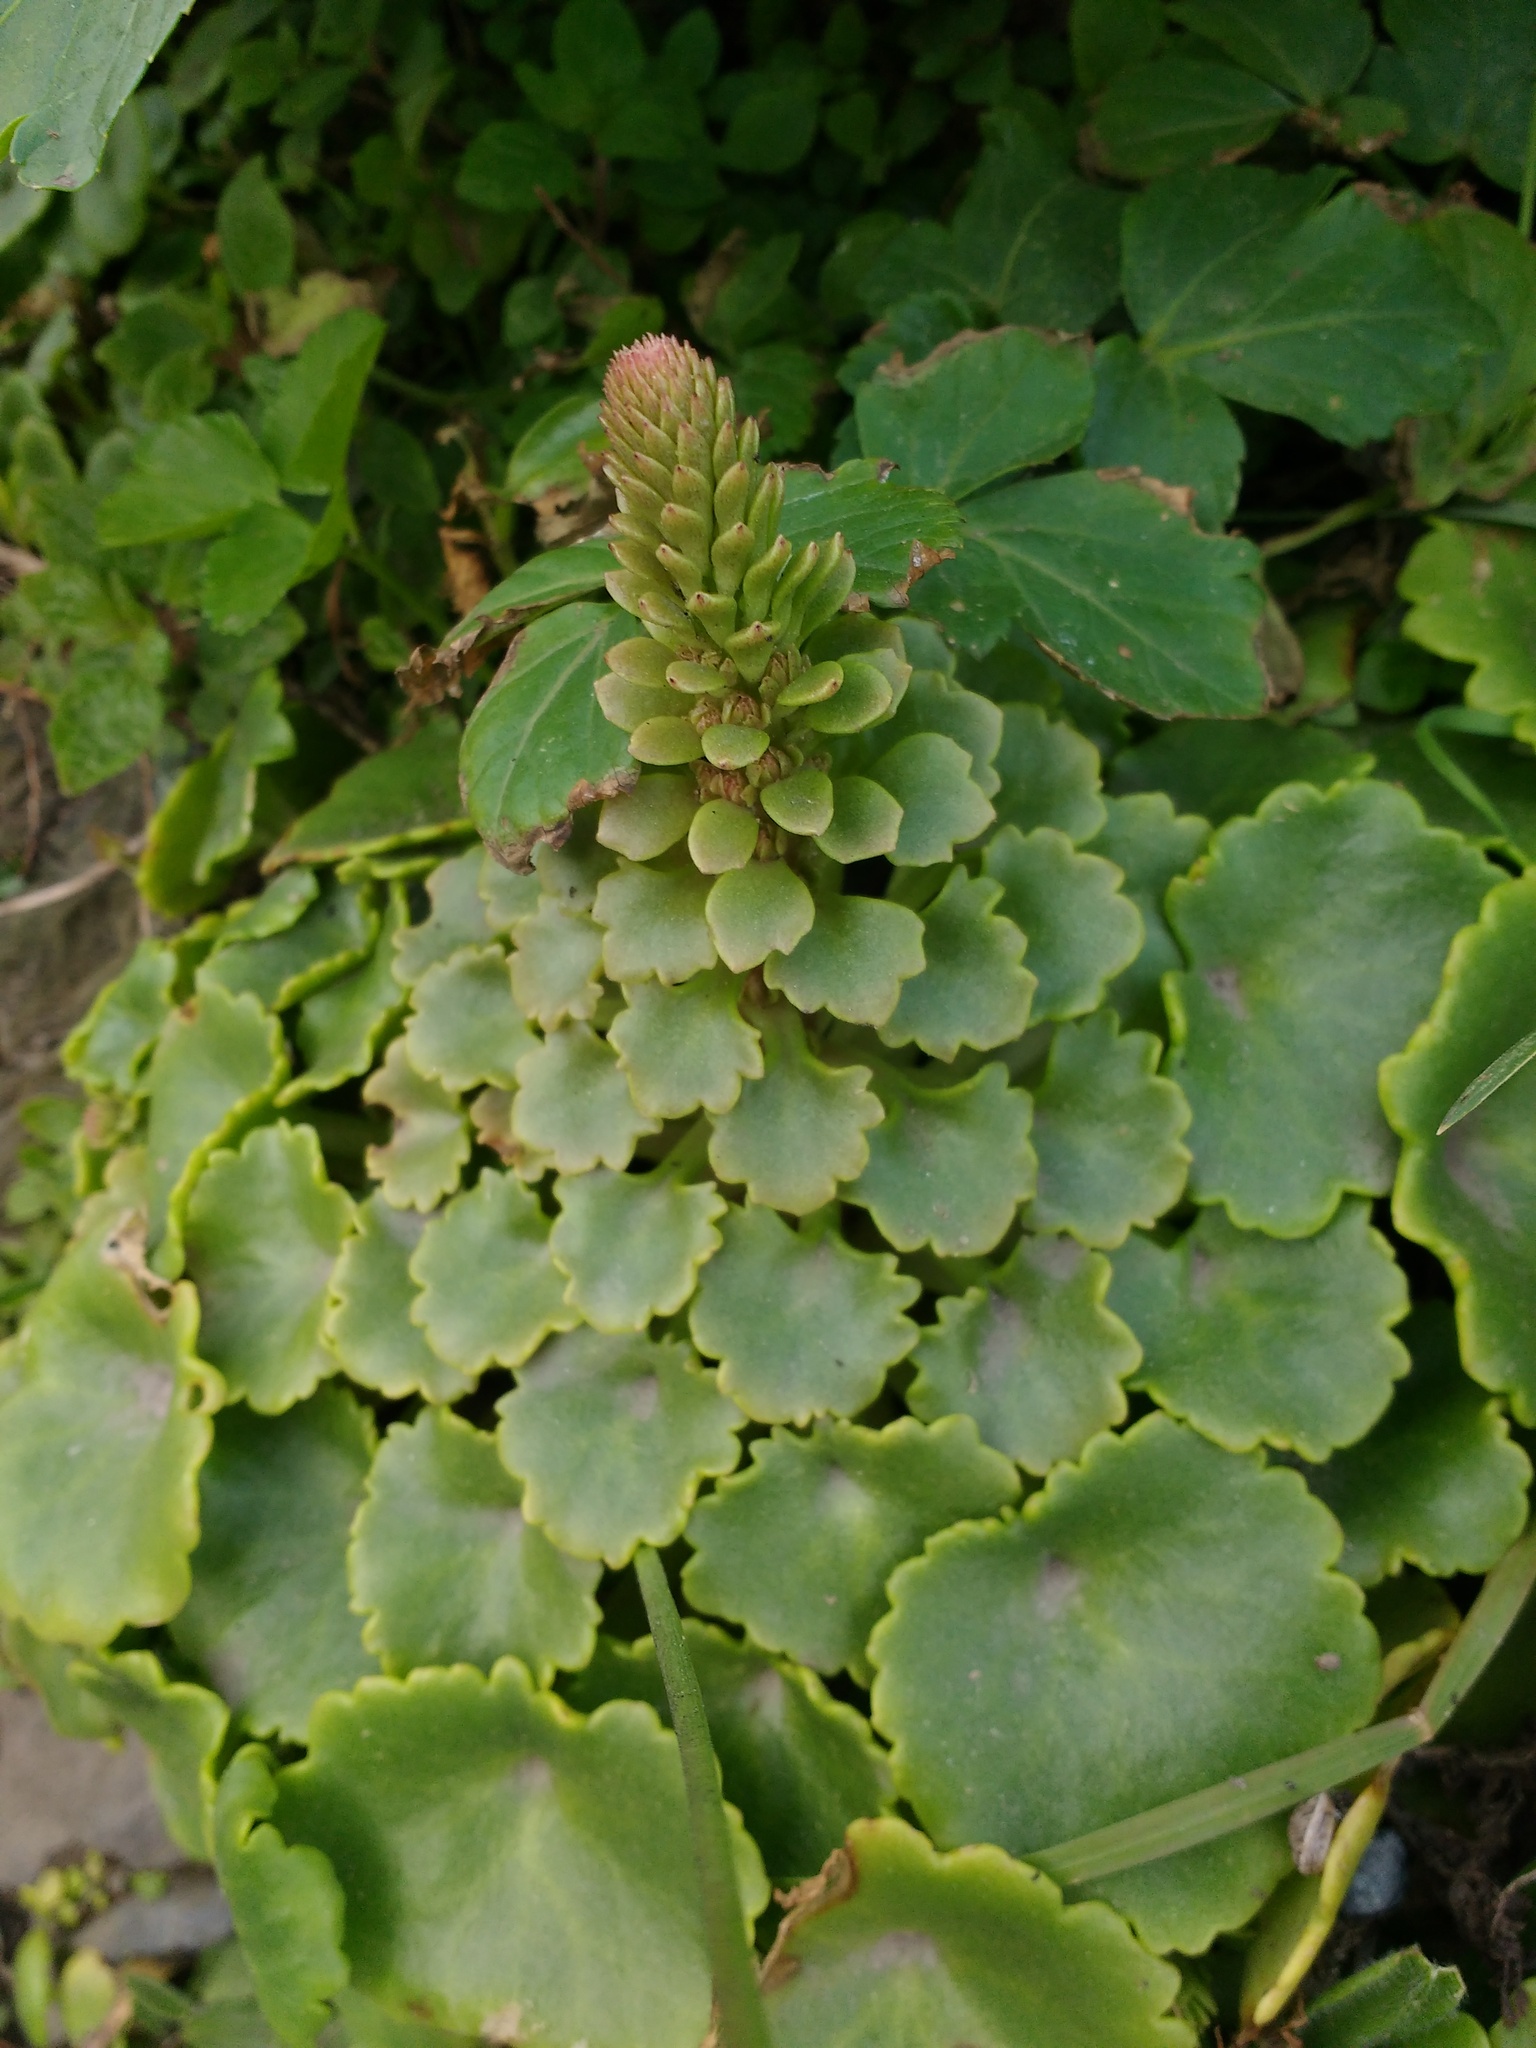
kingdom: Plantae
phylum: Tracheophyta
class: Magnoliopsida
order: Saxifragales
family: Crassulaceae
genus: Umbilicus
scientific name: Umbilicus rupestris
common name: Navelwort
